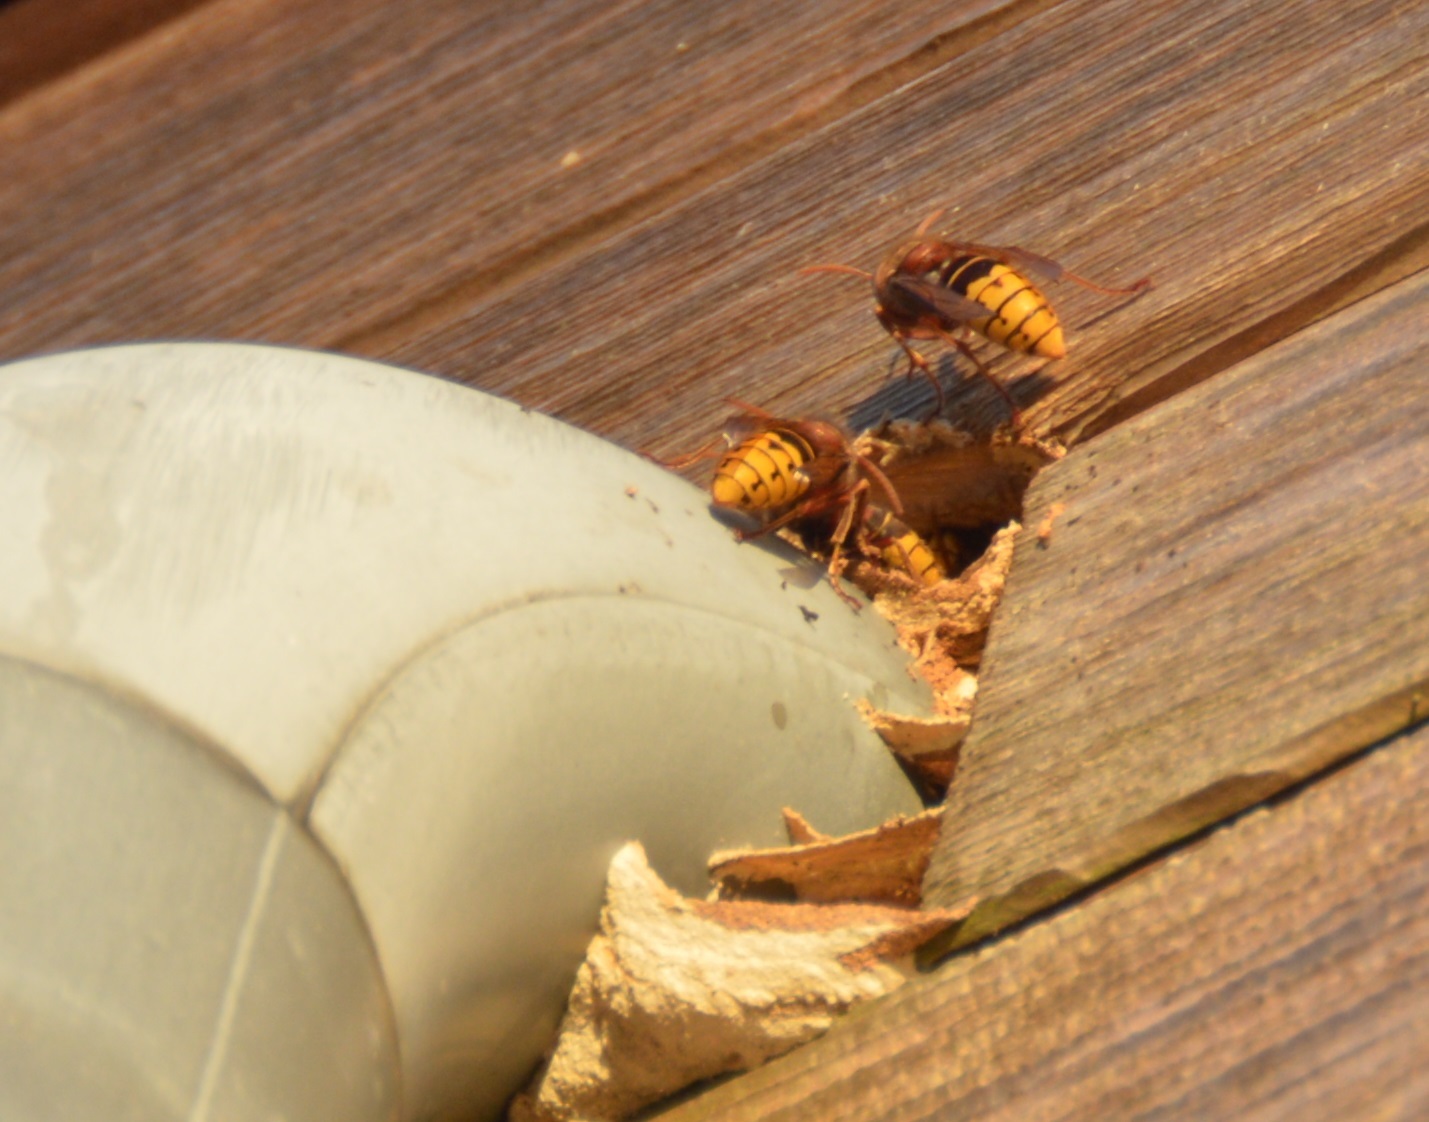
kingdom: Animalia
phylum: Arthropoda
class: Insecta
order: Hymenoptera
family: Vespidae
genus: Vespa
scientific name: Vespa crabro
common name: Hornet
